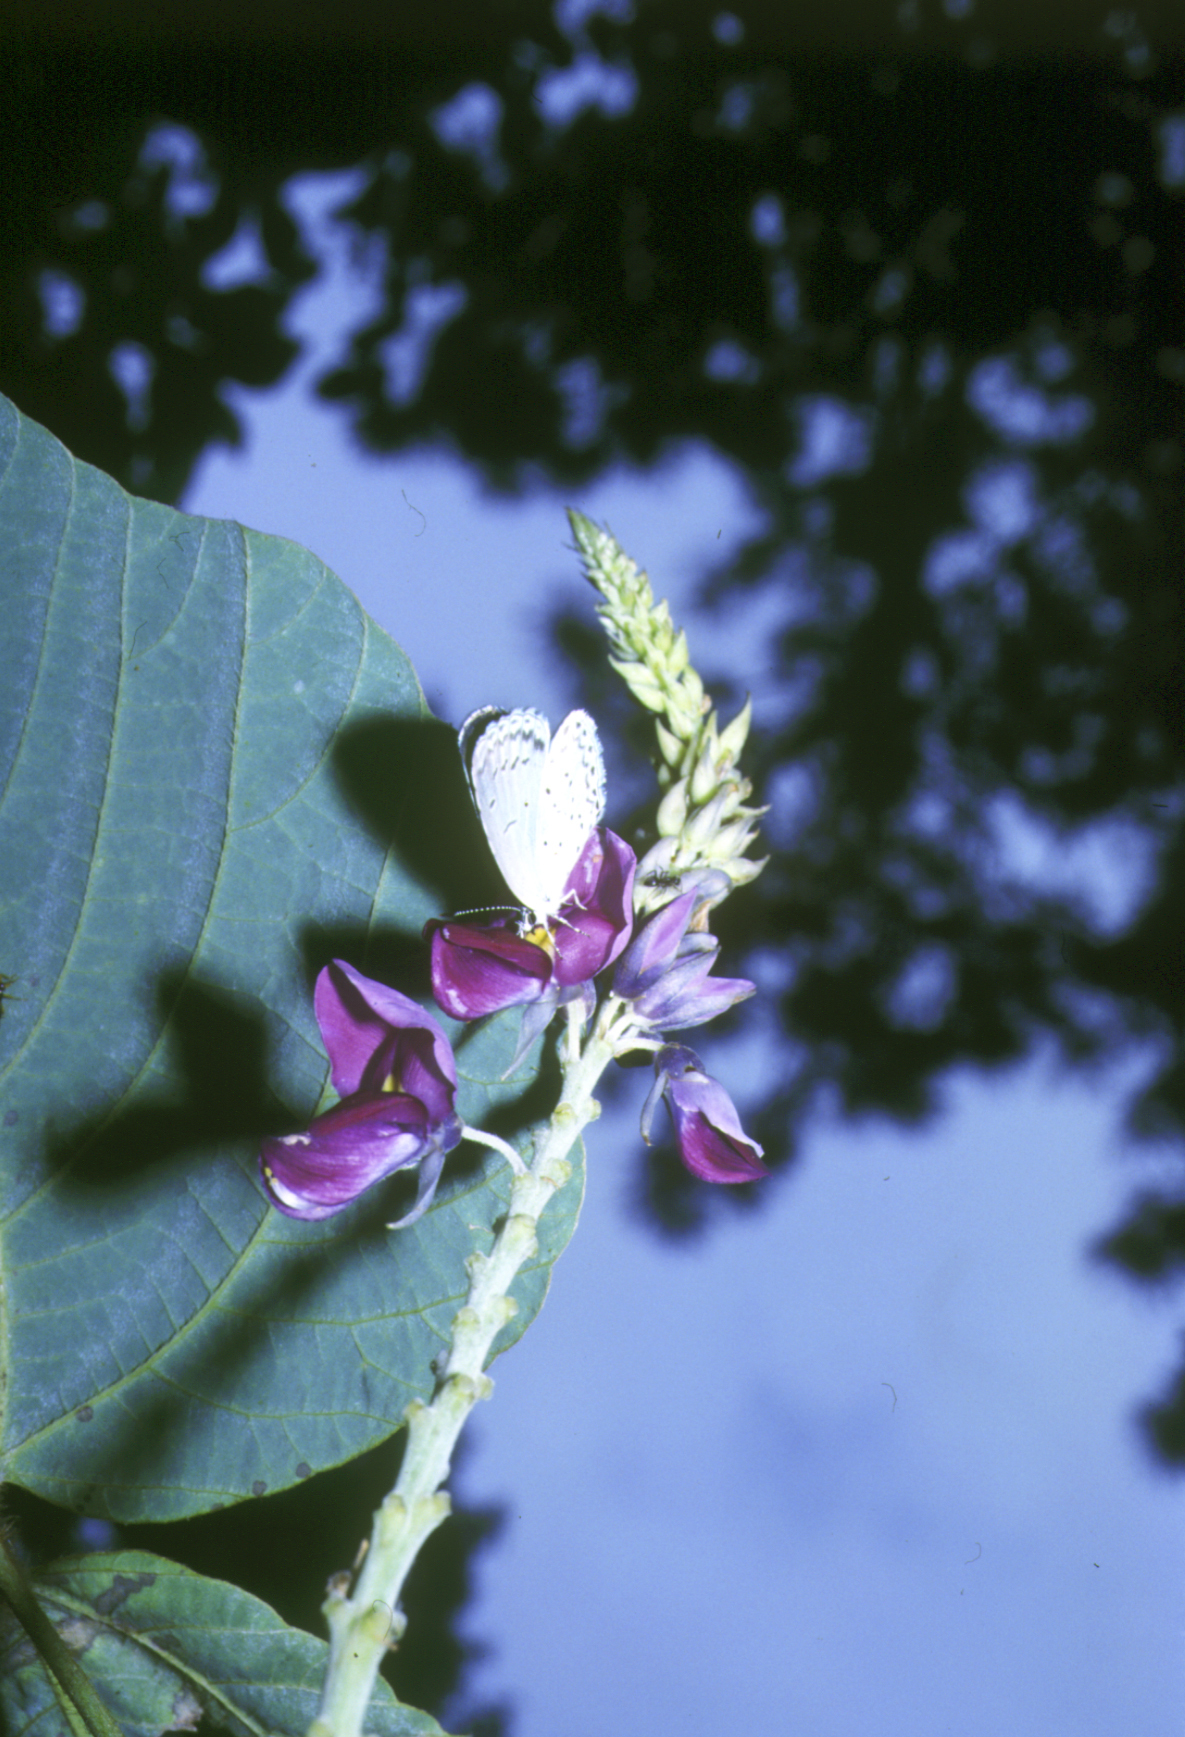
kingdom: Plantae
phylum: Tracheophyta
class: Magnoliopsida
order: Fabales
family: Fabaceae
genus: Pueraria
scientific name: Pueraria montana
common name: Kudzu
